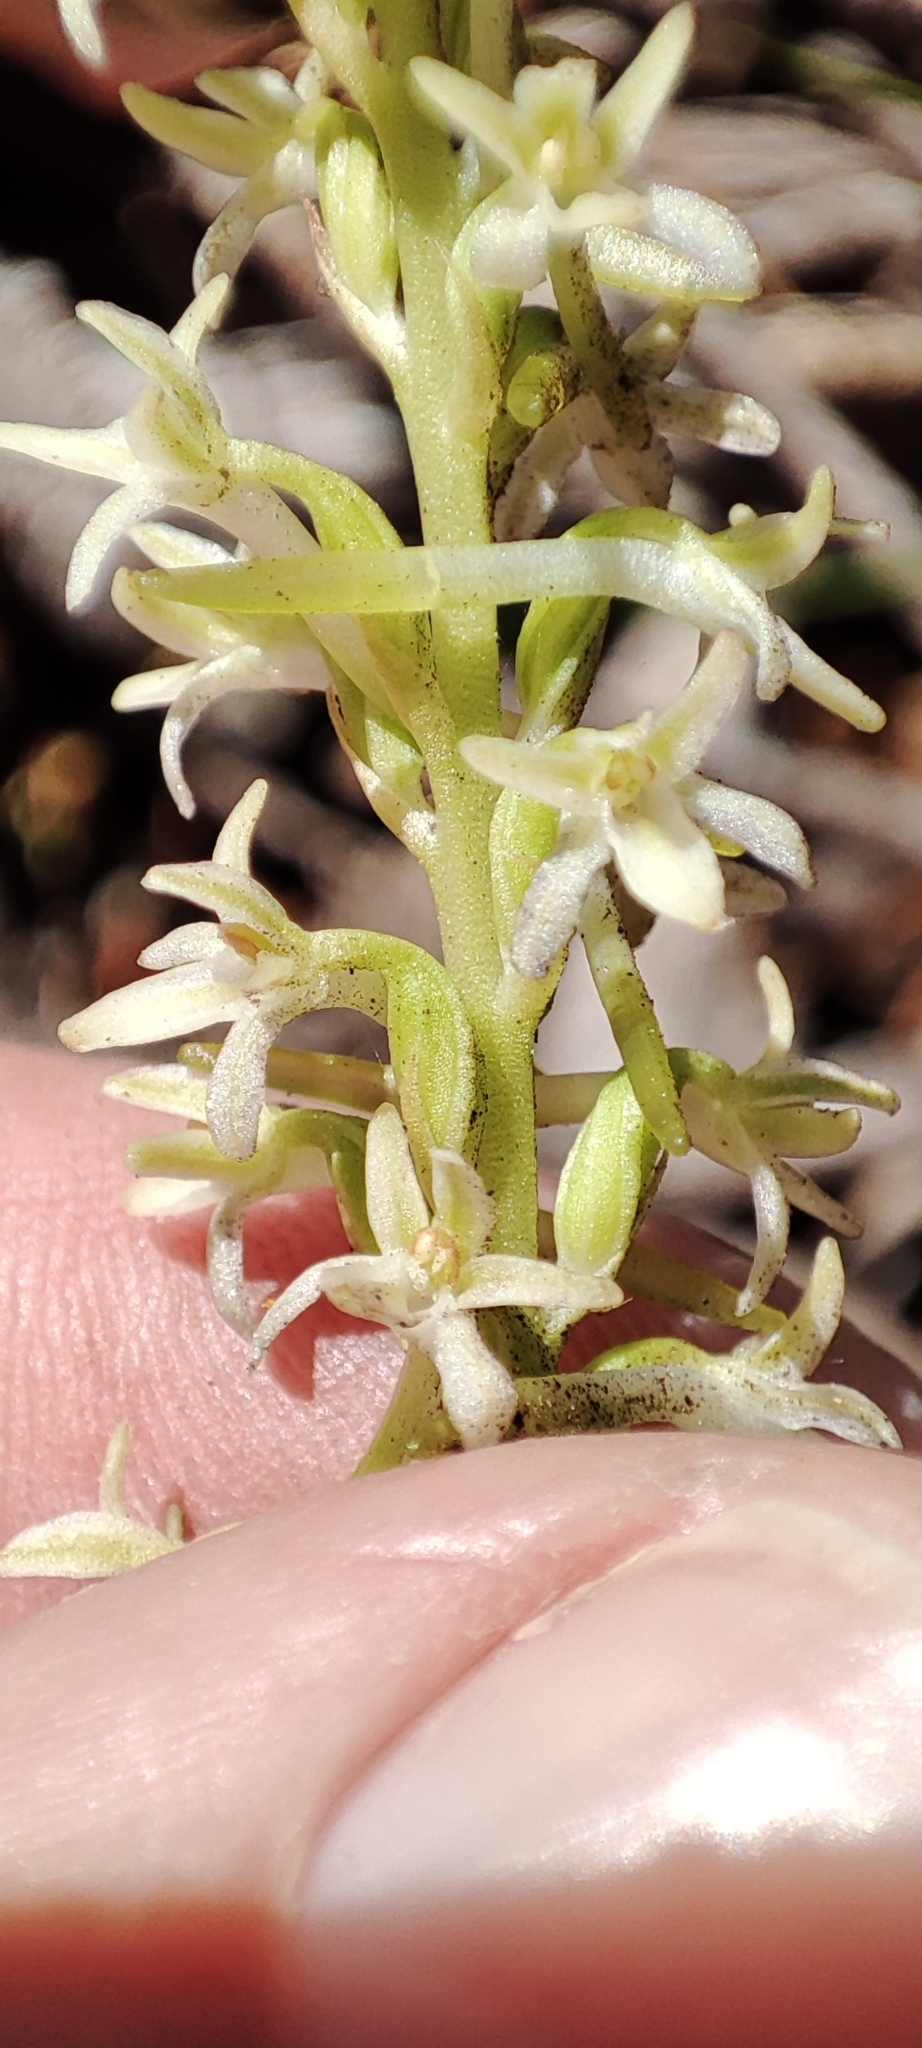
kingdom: Plantae
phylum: Tracheophyta
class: Liliopsida
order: Asparagales
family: Orchidaceae
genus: Platanthera
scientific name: Platanthera transversa
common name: Royal rein orchid
